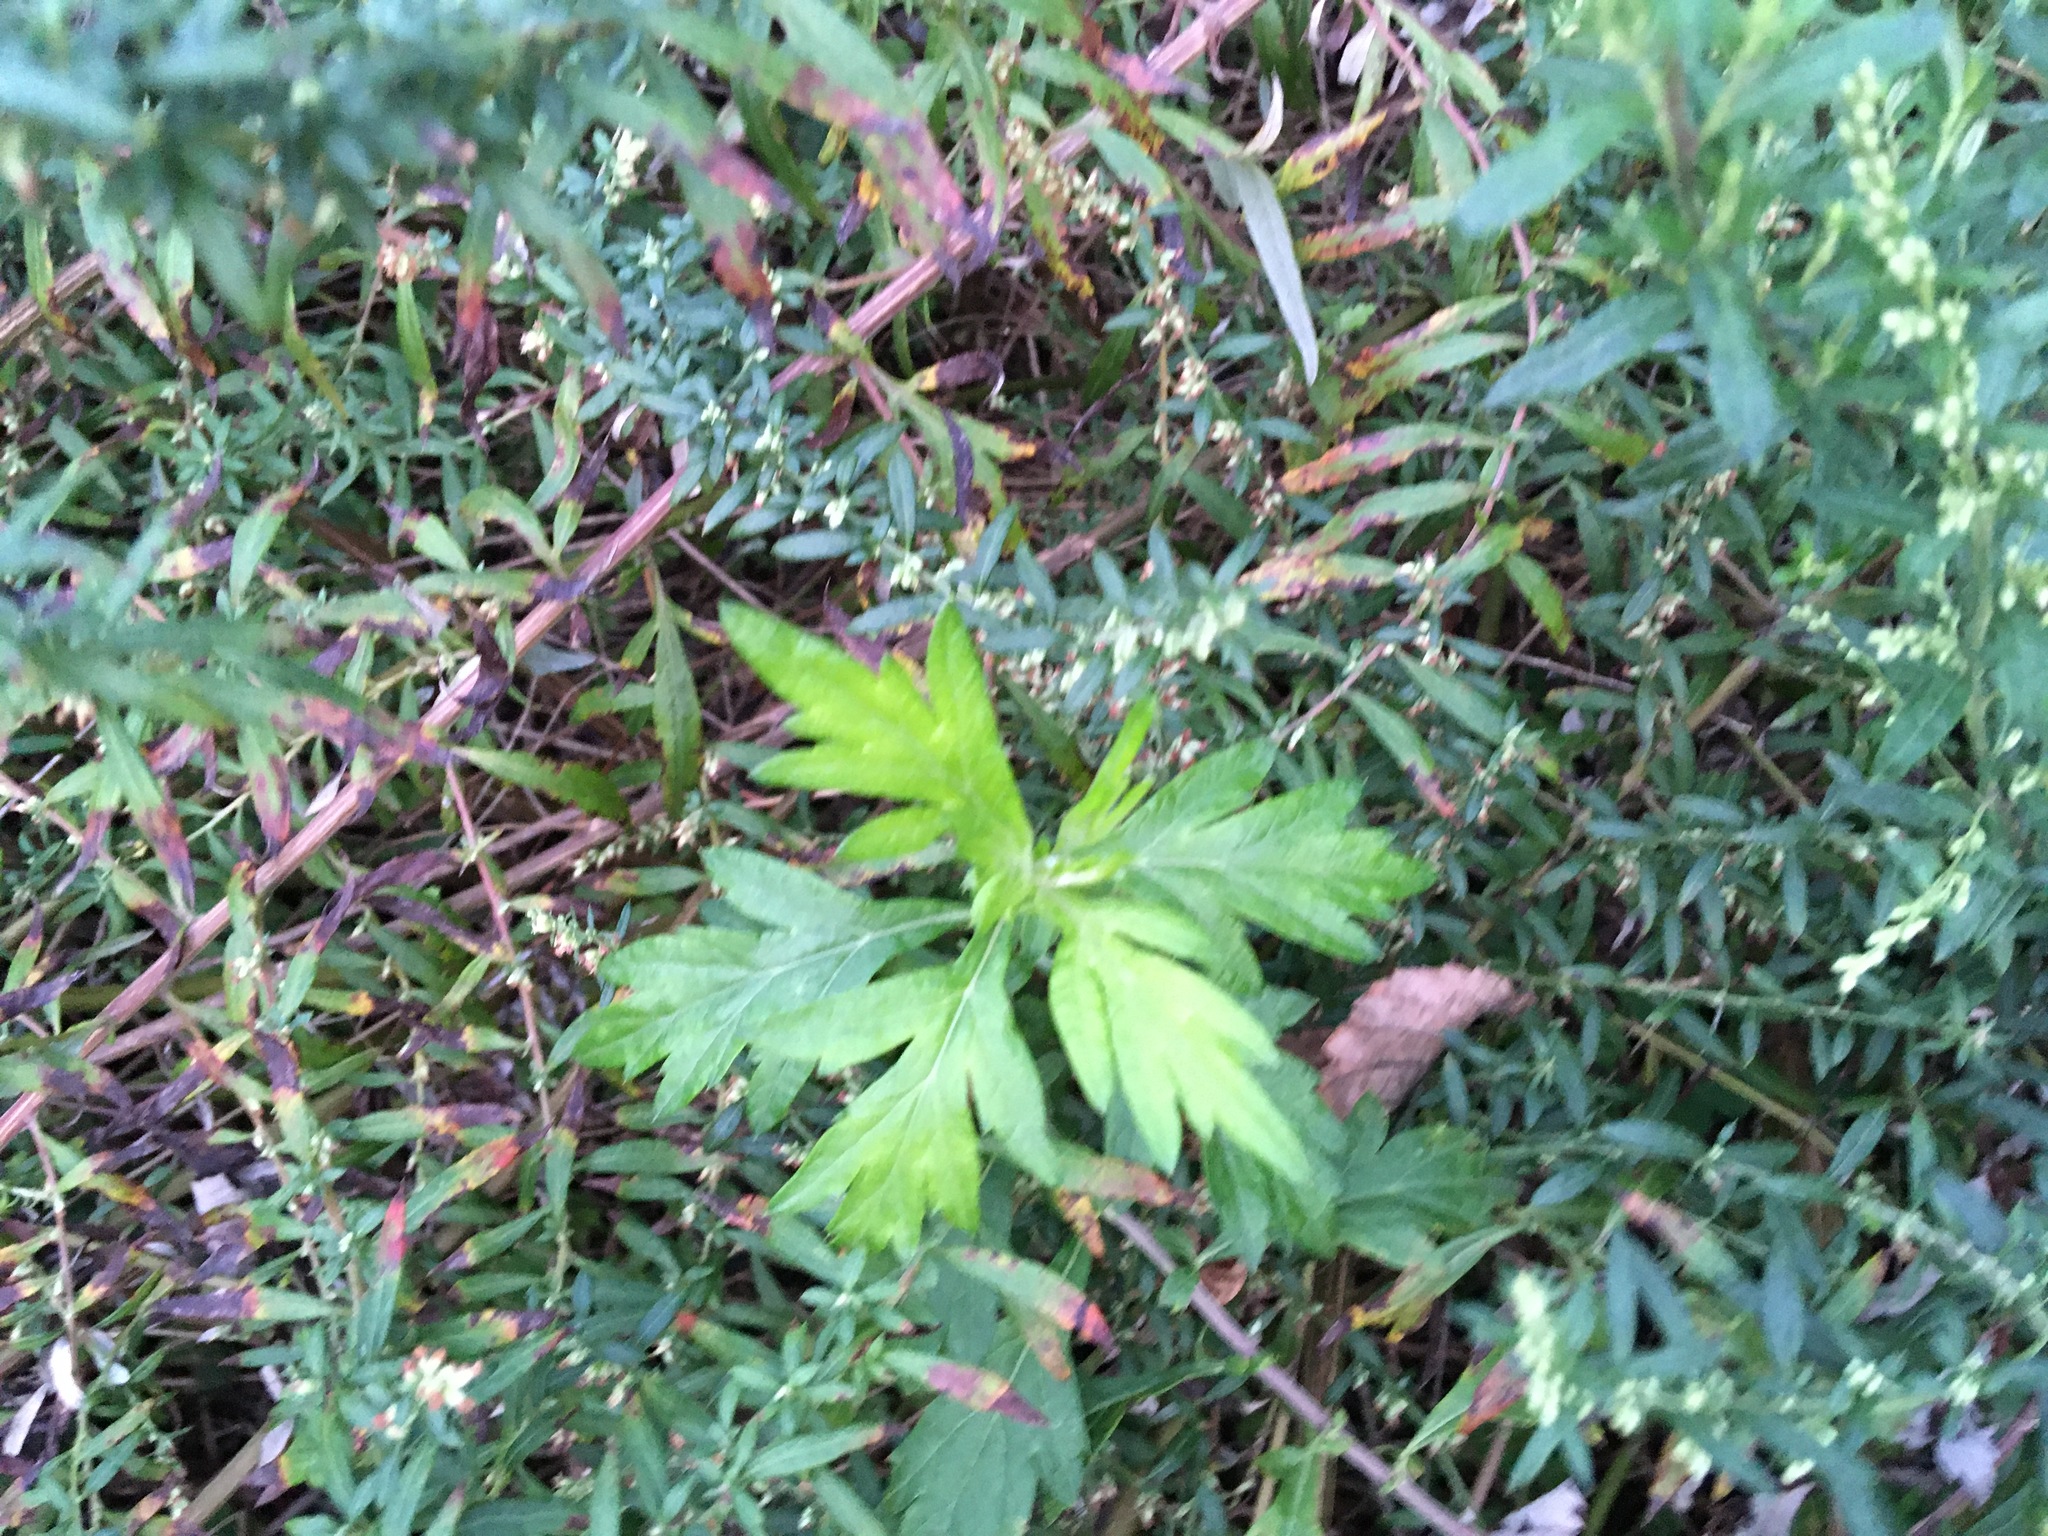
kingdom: Plantae
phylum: Tracheophyta
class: Magnoliopsida
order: Asterales
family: Asteraceae
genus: Artemisia
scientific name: Artemisia vulgaris
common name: Mugwort
